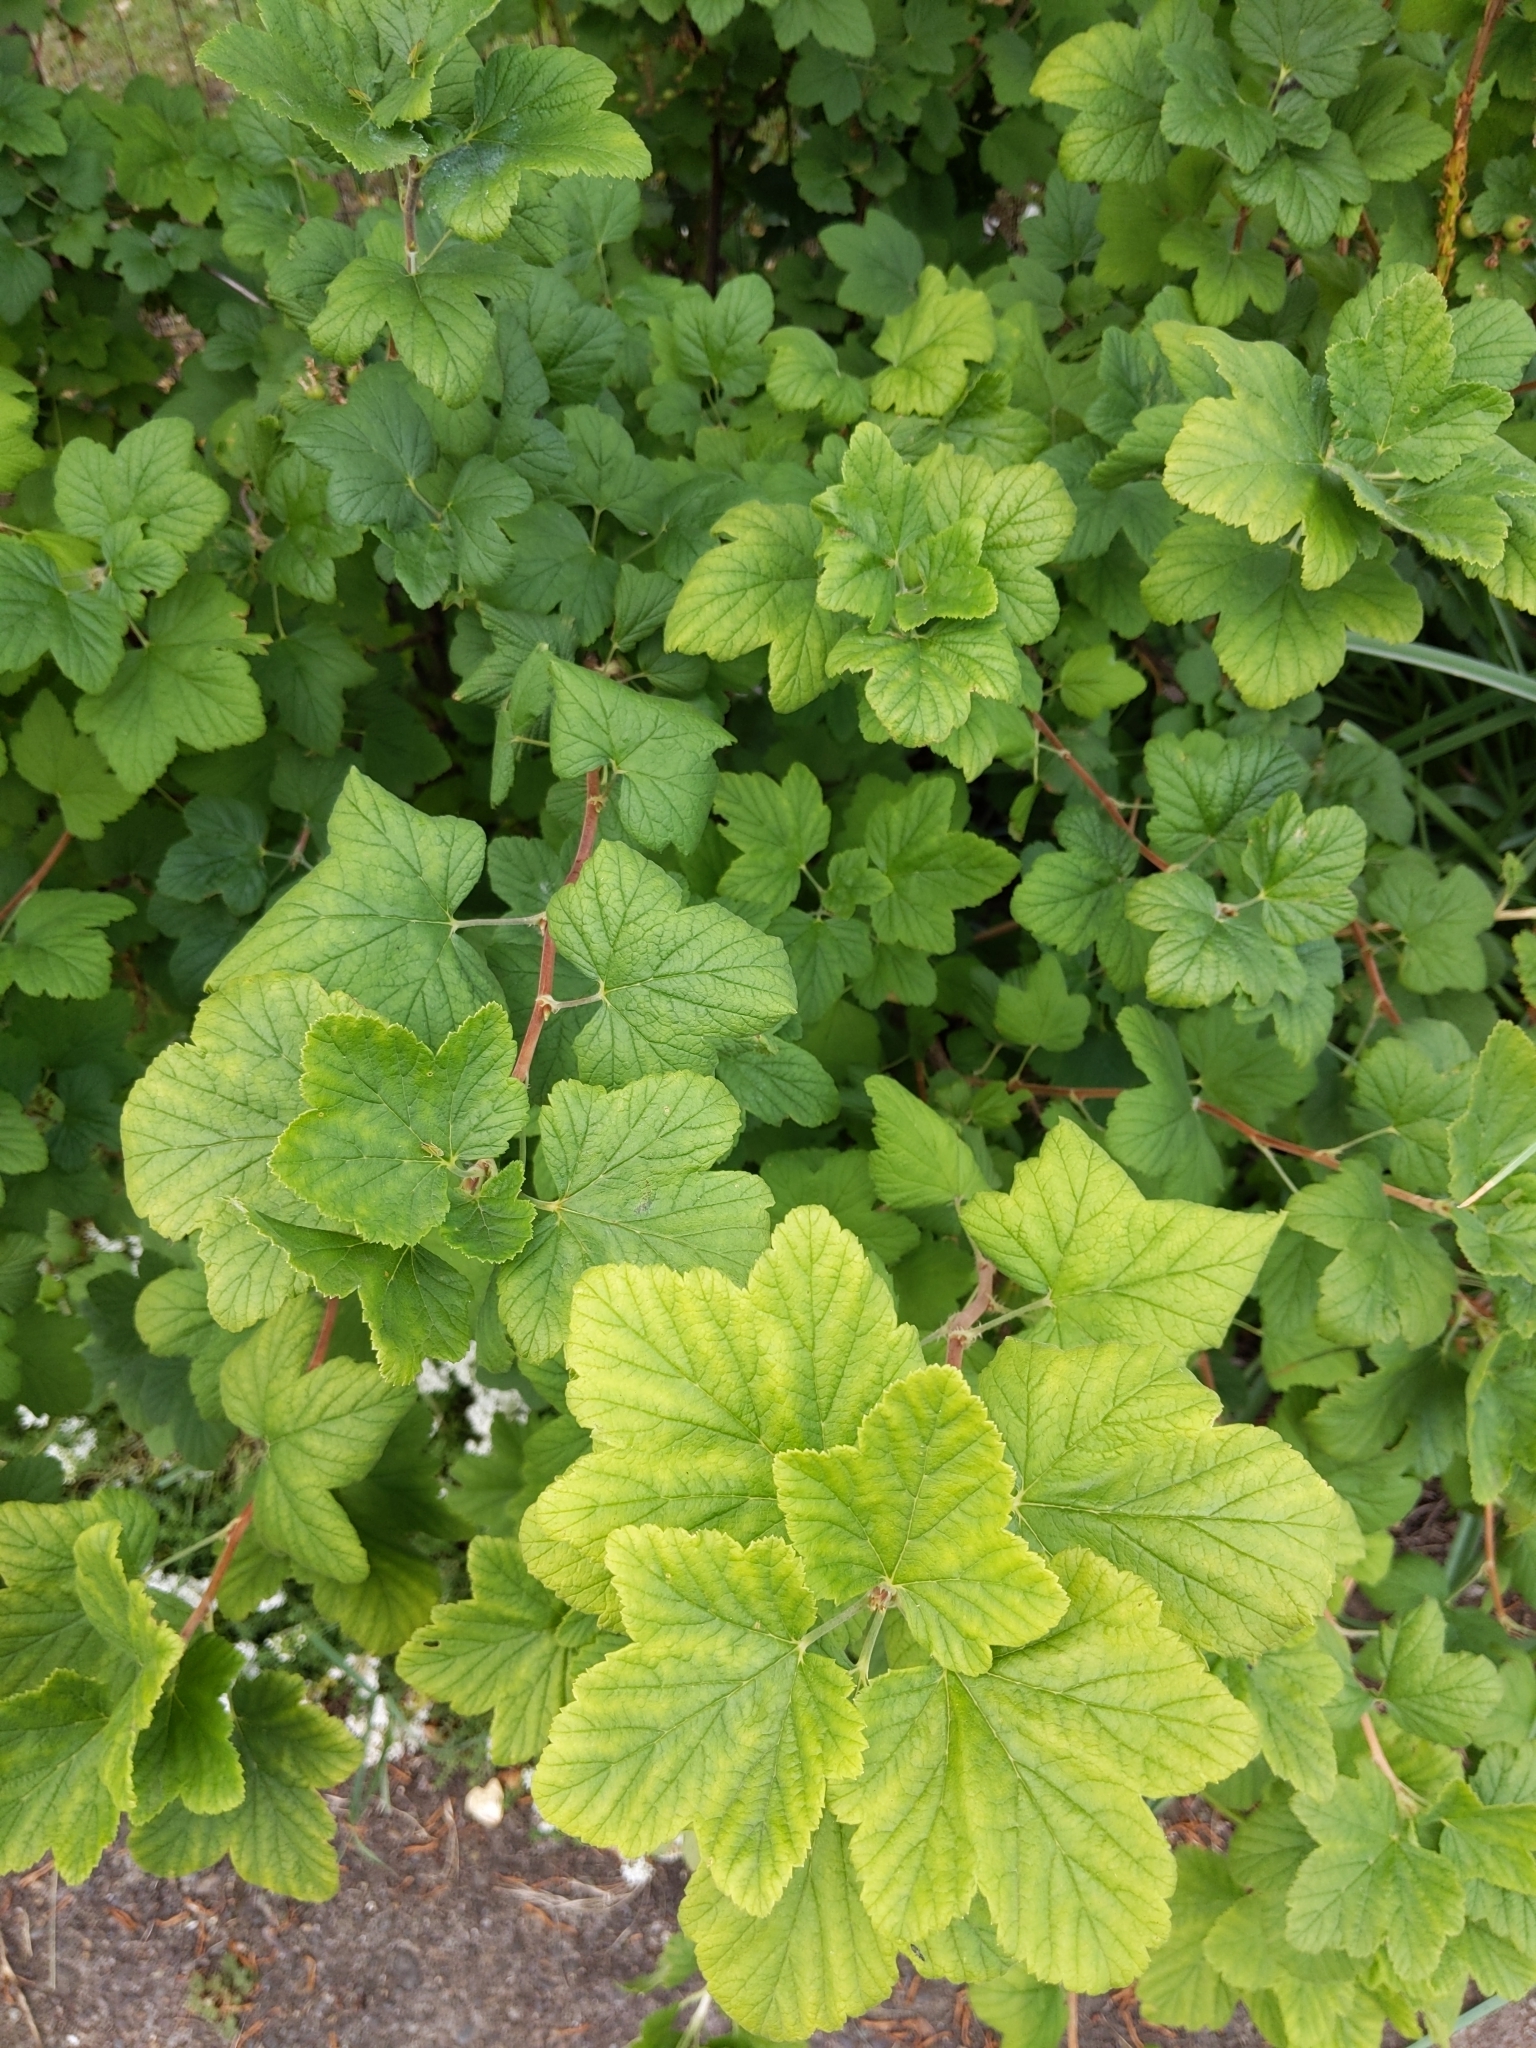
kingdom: Plantae
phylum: Tracheophyta
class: Magnoliopsida
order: Saxifragales
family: Grossulariaceae
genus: Ribes
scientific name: Ribes sanguineum
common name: Flowering currant
